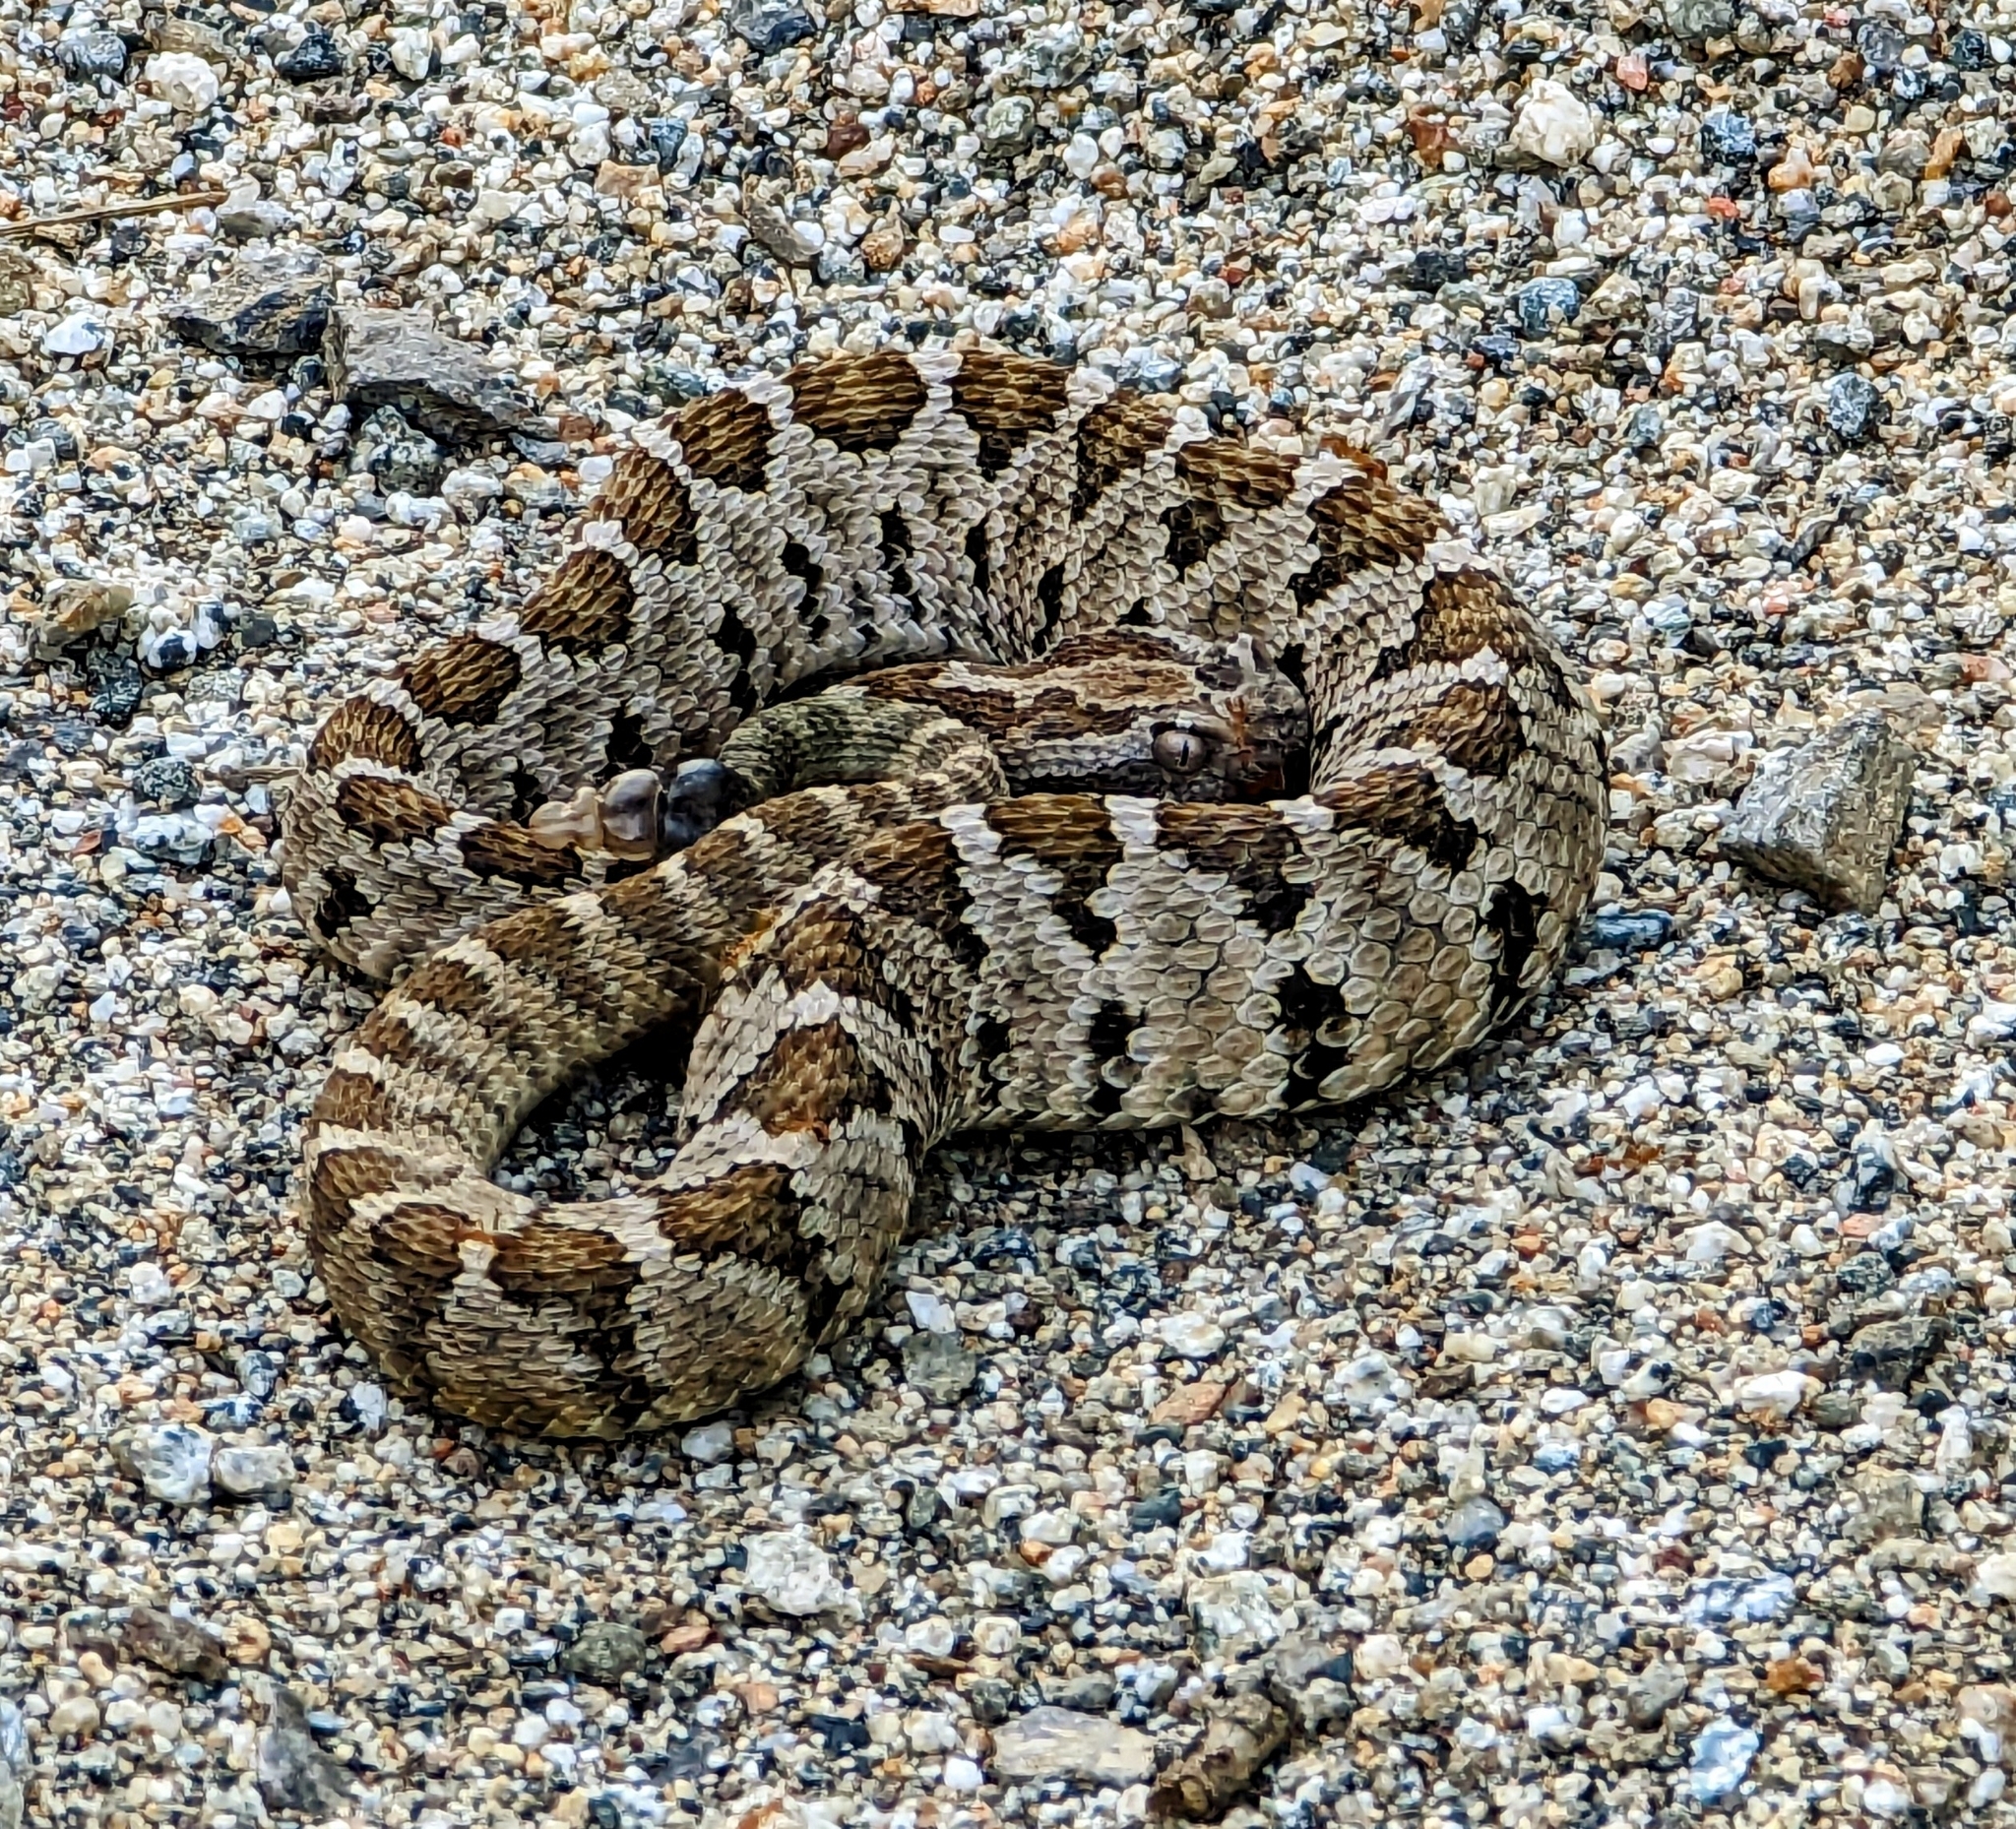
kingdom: Animalia
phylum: Chordata
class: Squamata
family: Viperidae
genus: Crotalus
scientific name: Crotalus enyo
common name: Lower california rattlesnake
